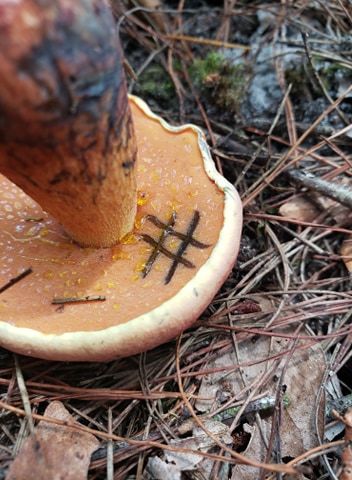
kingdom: Fungi
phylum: Basidiomycota
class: Agaricomycetes
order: Boletales
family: Boletaceae
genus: Butyriboletus
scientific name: Butyriboletus floridanus
